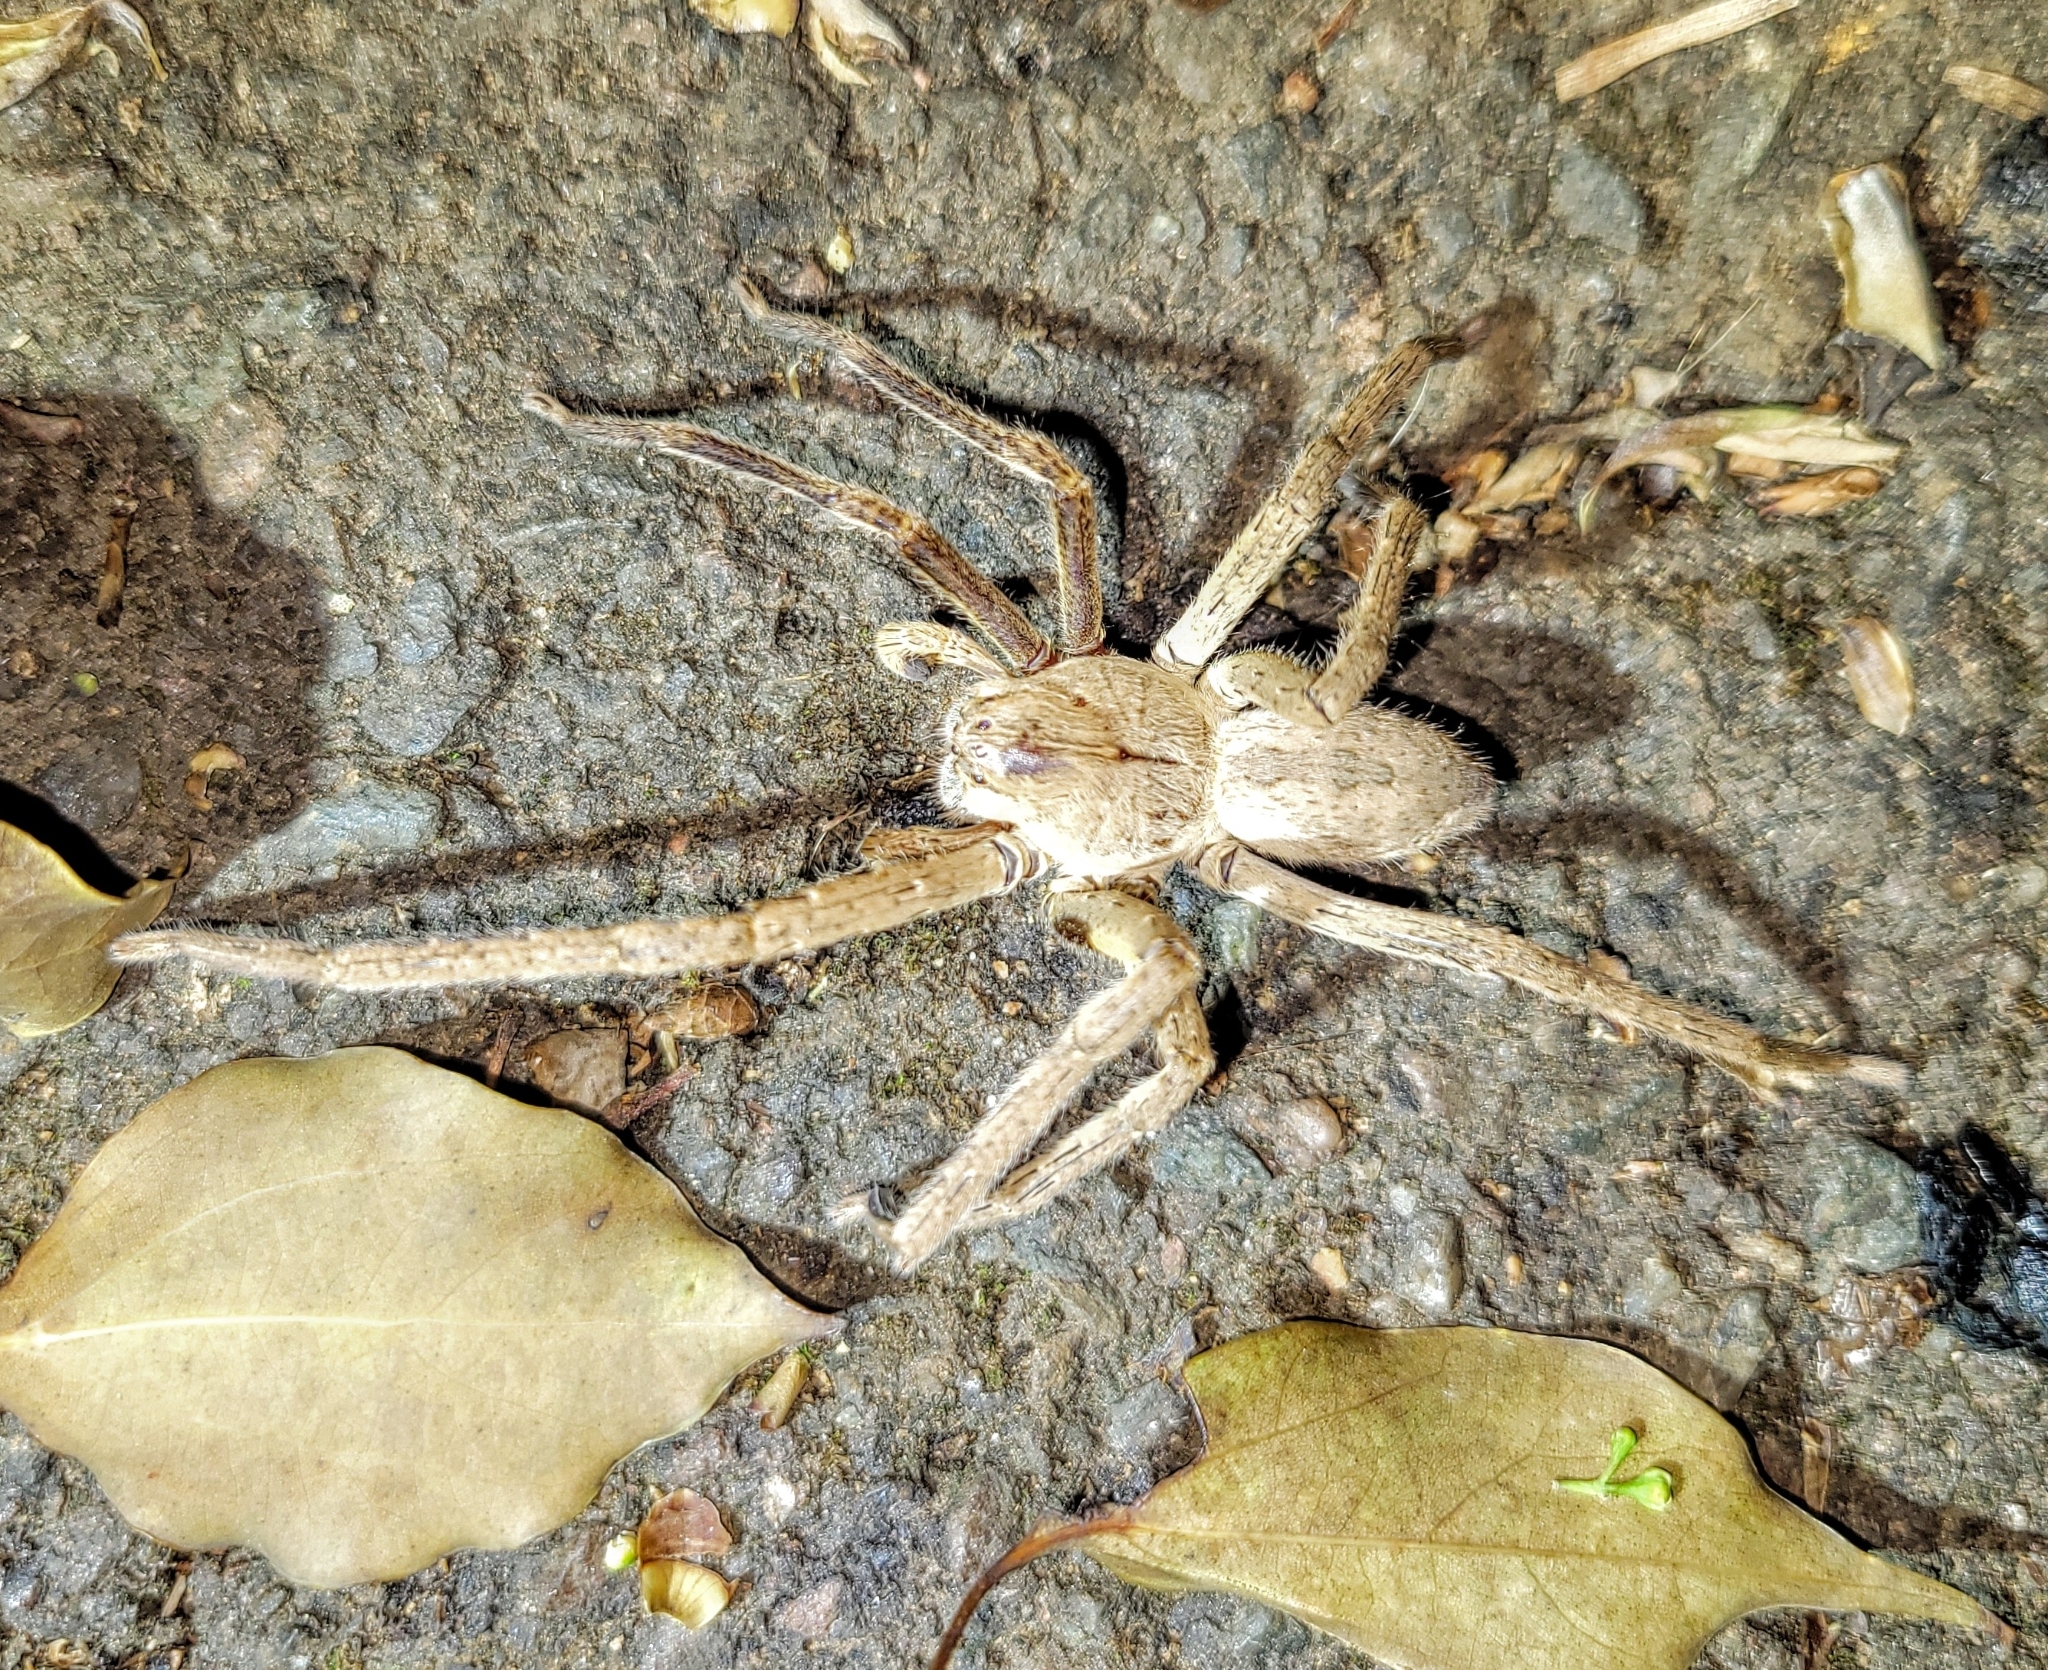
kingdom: Animalia
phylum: Arthropoda
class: Arachnida
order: Araneae
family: Sparassidae
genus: Palystes
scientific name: Palystes superciliosus
